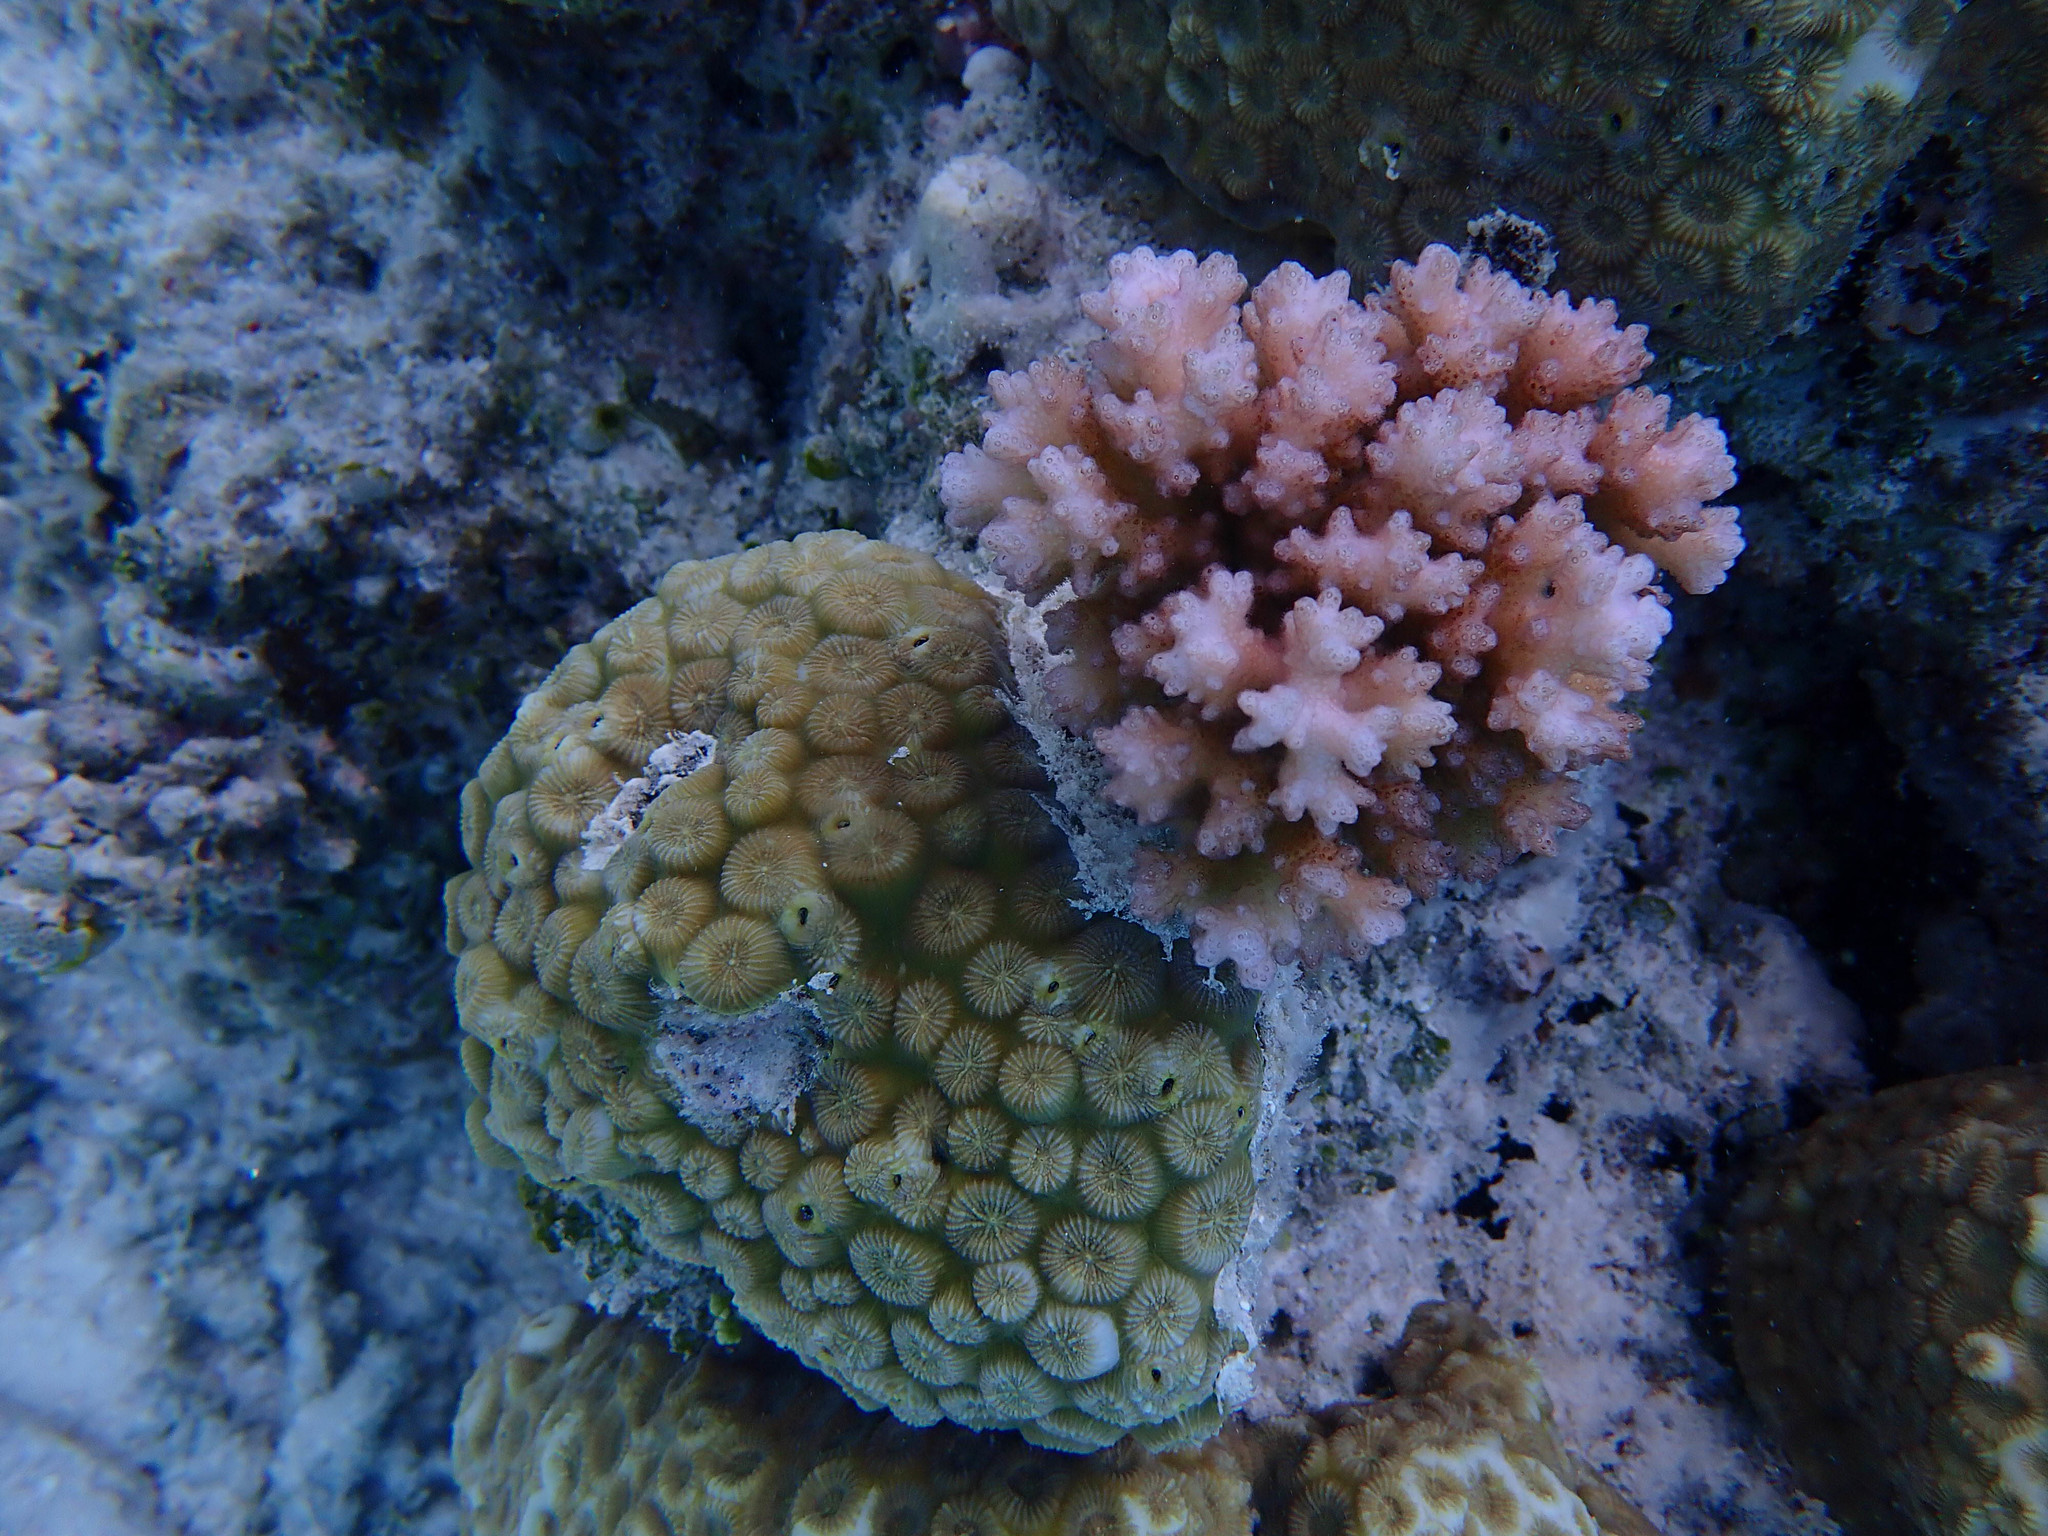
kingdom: Animalia
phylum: Cnidaria
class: Anthozoa
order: Scleractinia
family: Merulinidae
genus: Favites
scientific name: Favites magnistellata
